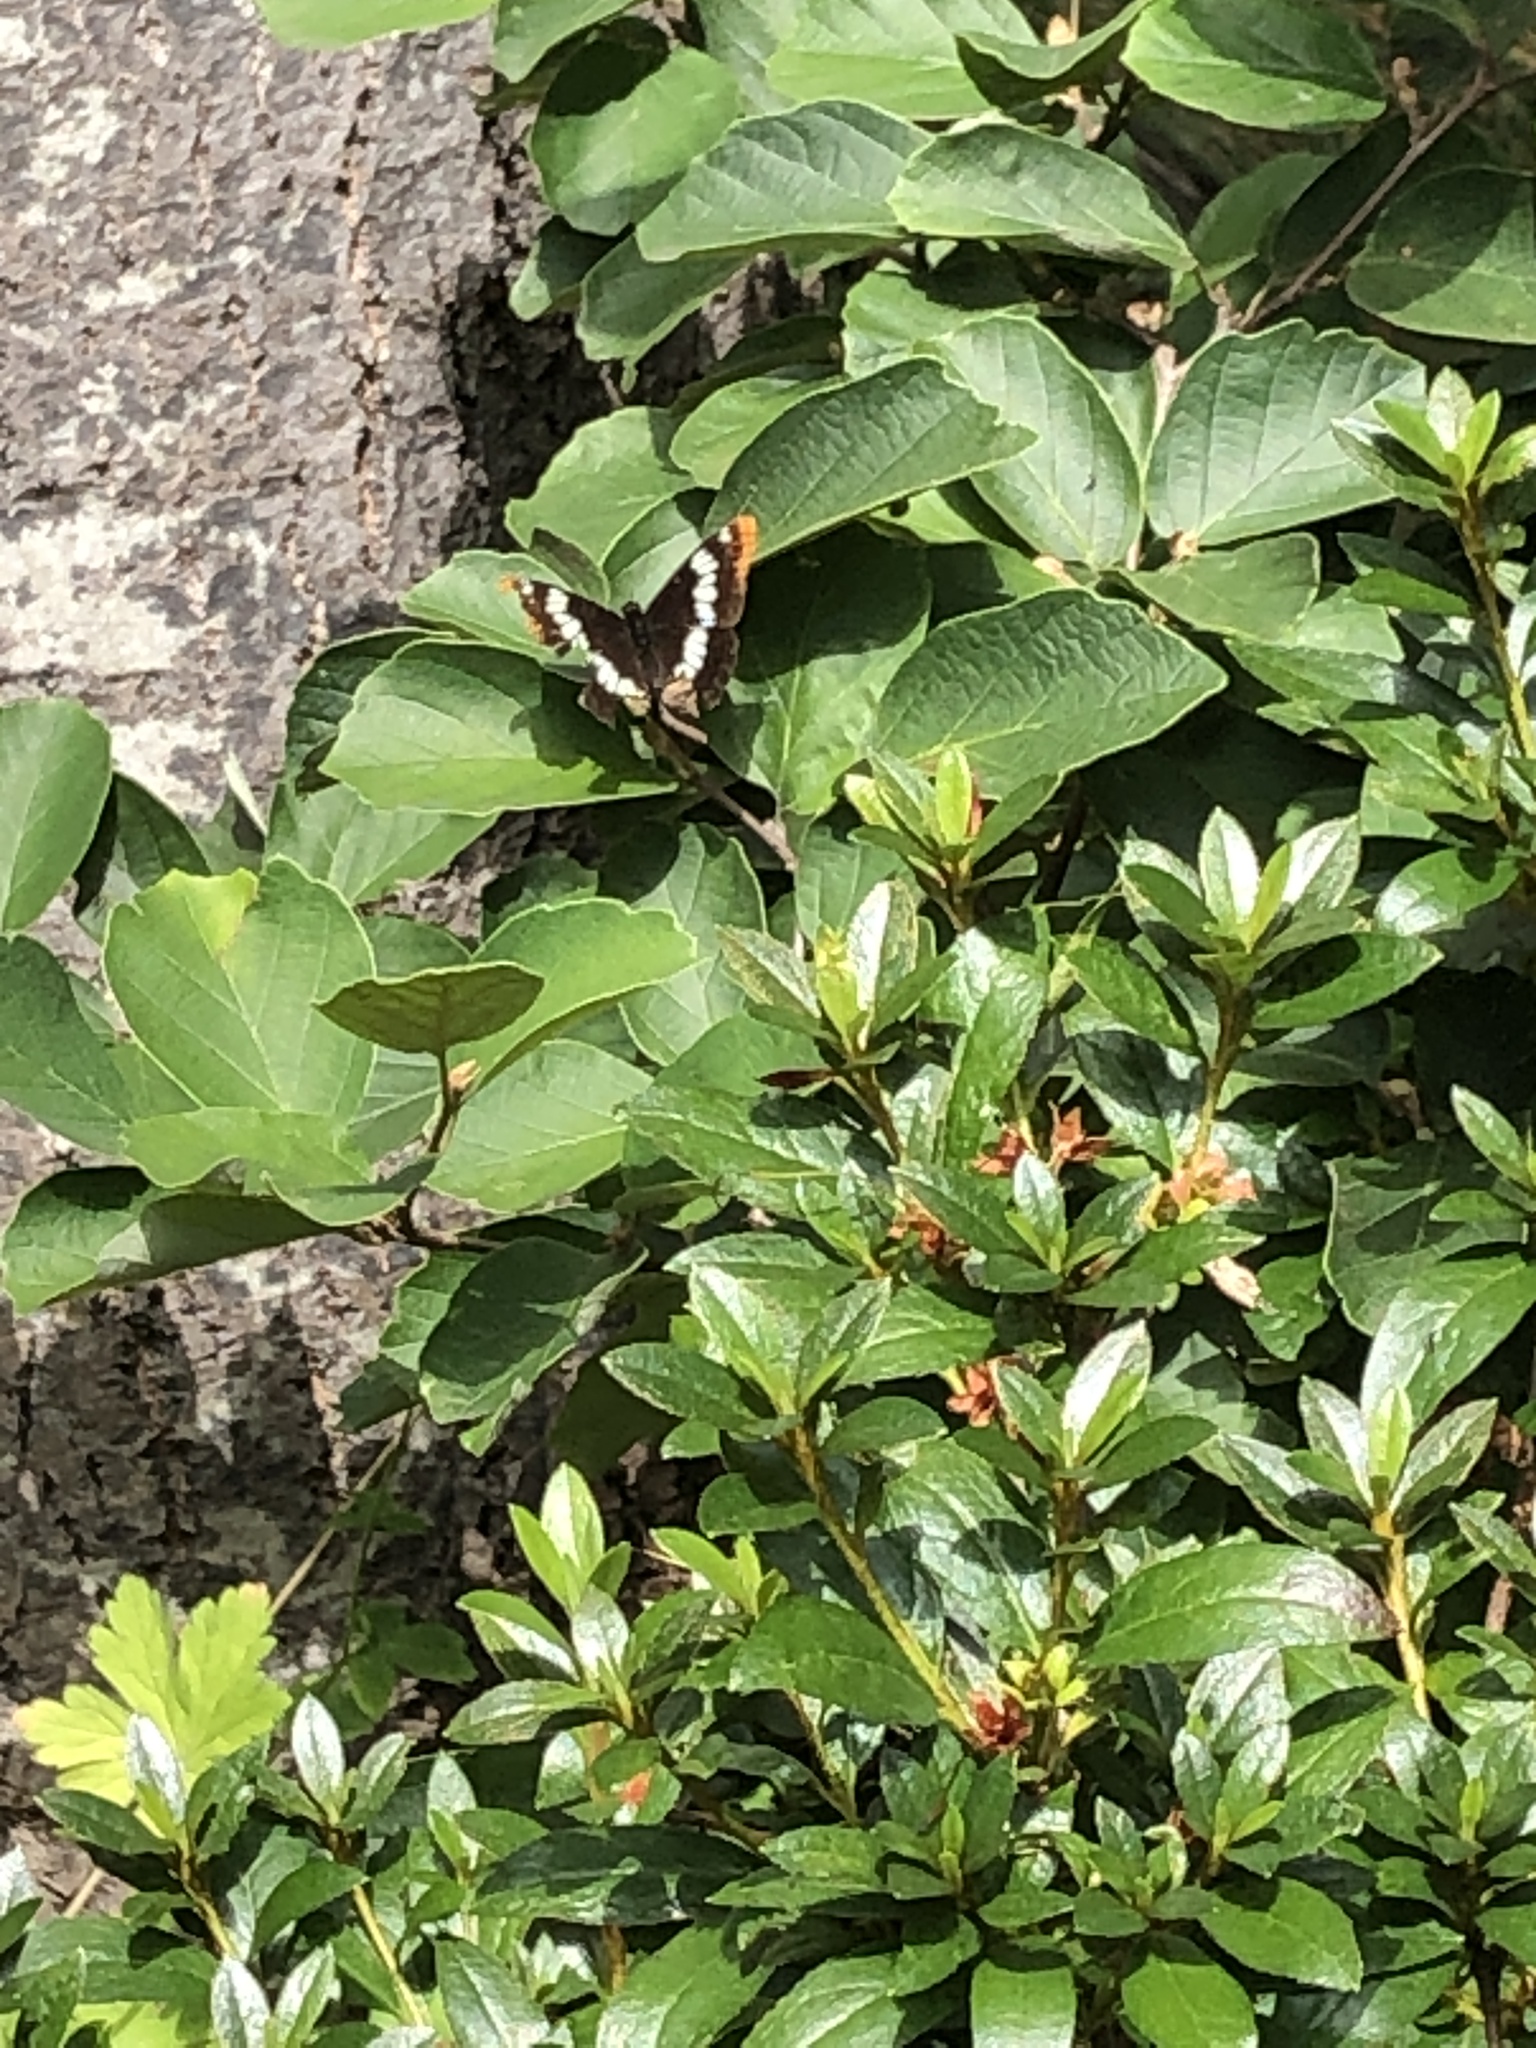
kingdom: Animalia
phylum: Arthropoda
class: Insecta
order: Lepidoptera
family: Nymphalidae
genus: Limenitis
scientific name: Limenitis lorquini
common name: Lorquin's admiral
